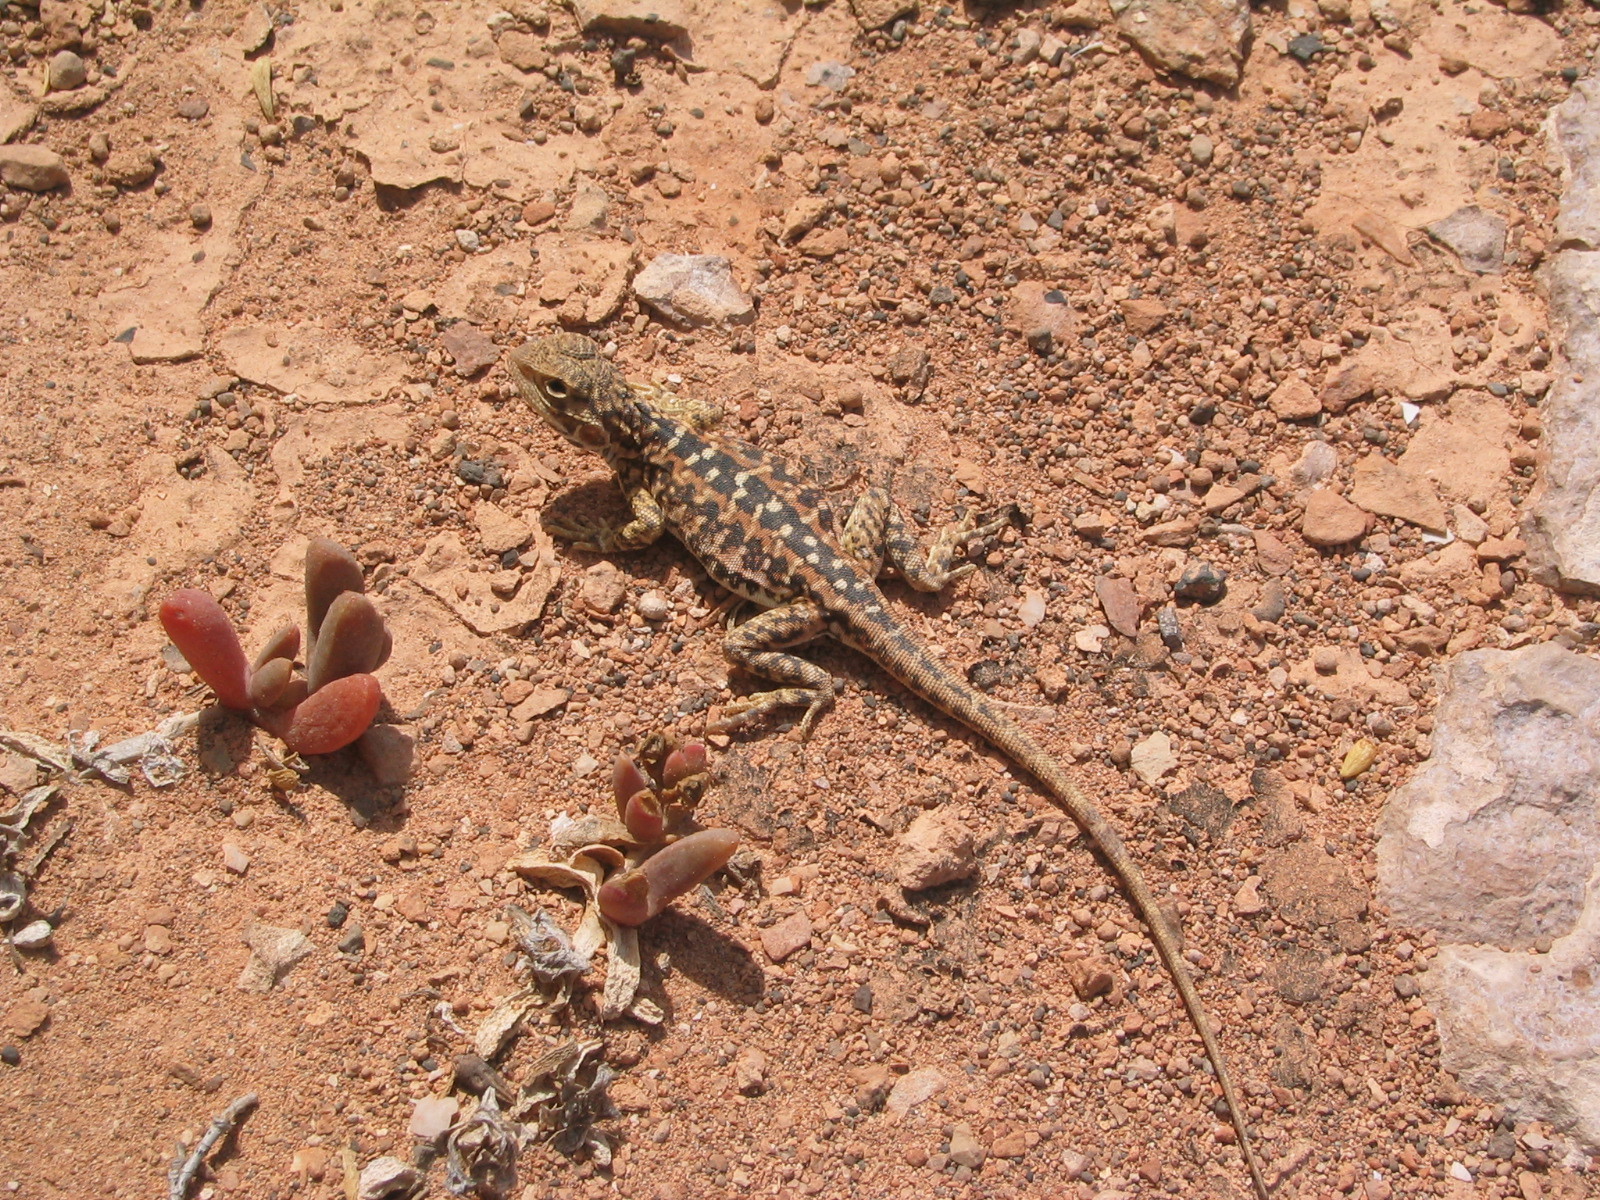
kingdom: Animalia
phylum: Chordata
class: Squamata
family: Agamidae
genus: Ctenophorus
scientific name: Ctenophorus pictus
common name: Painted dragon
